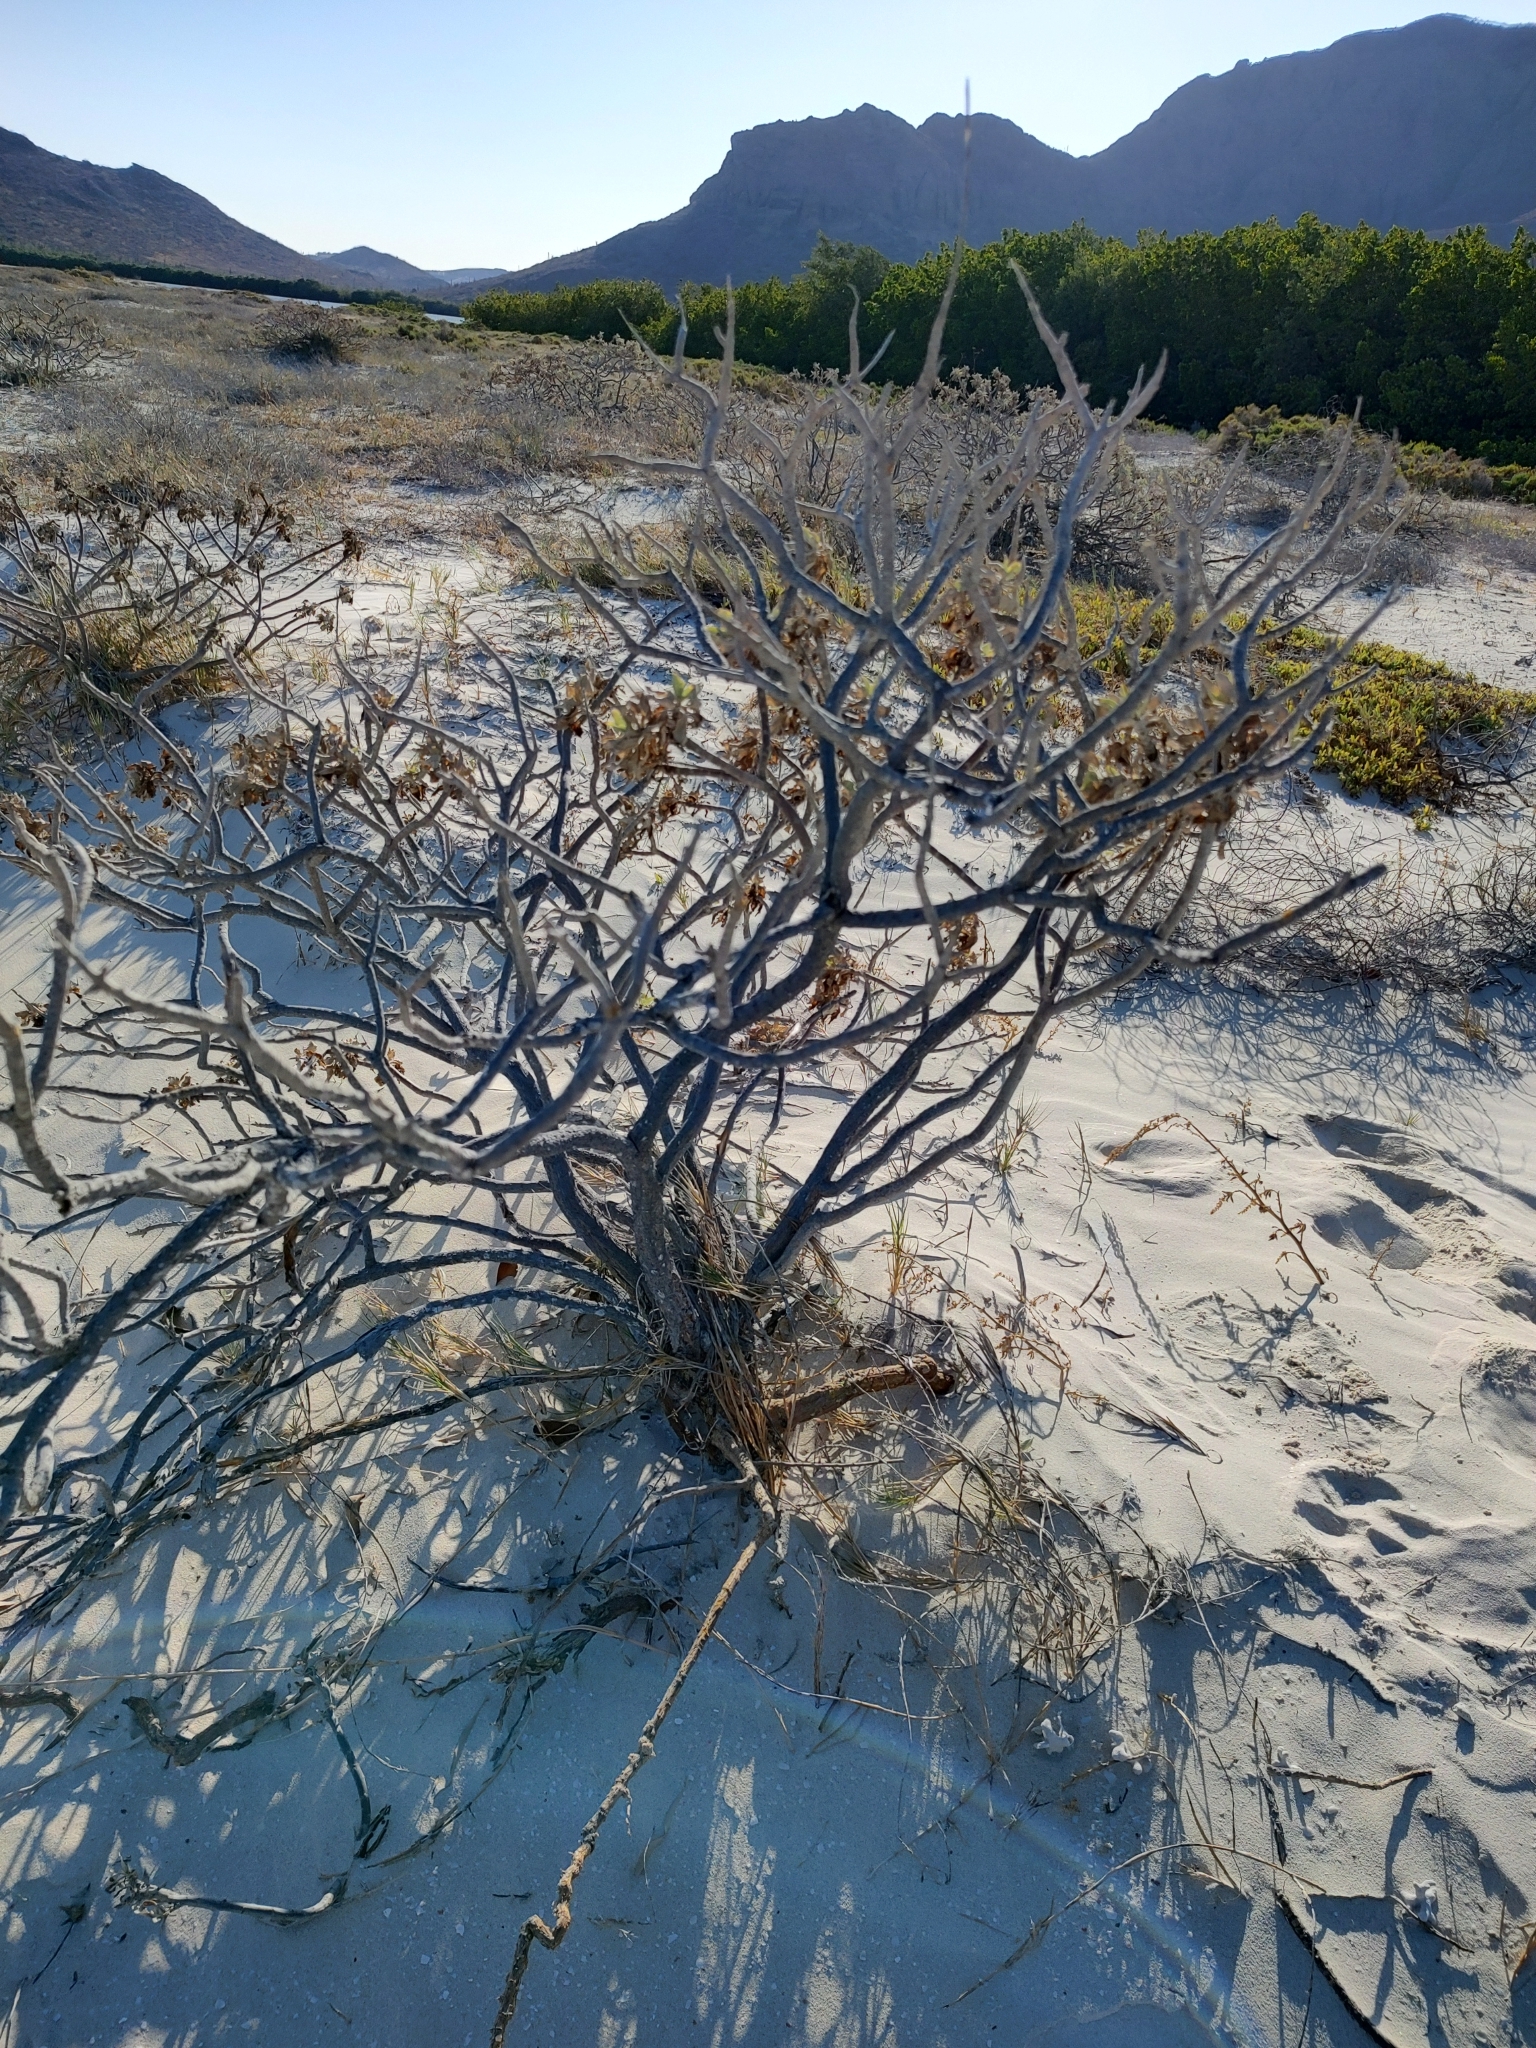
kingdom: Plantae
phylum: Tracheophyta
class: Magnoliopsida
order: Asterales
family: Asteraceae
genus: Encelia
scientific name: Encelia farinosa
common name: Brittlebush
